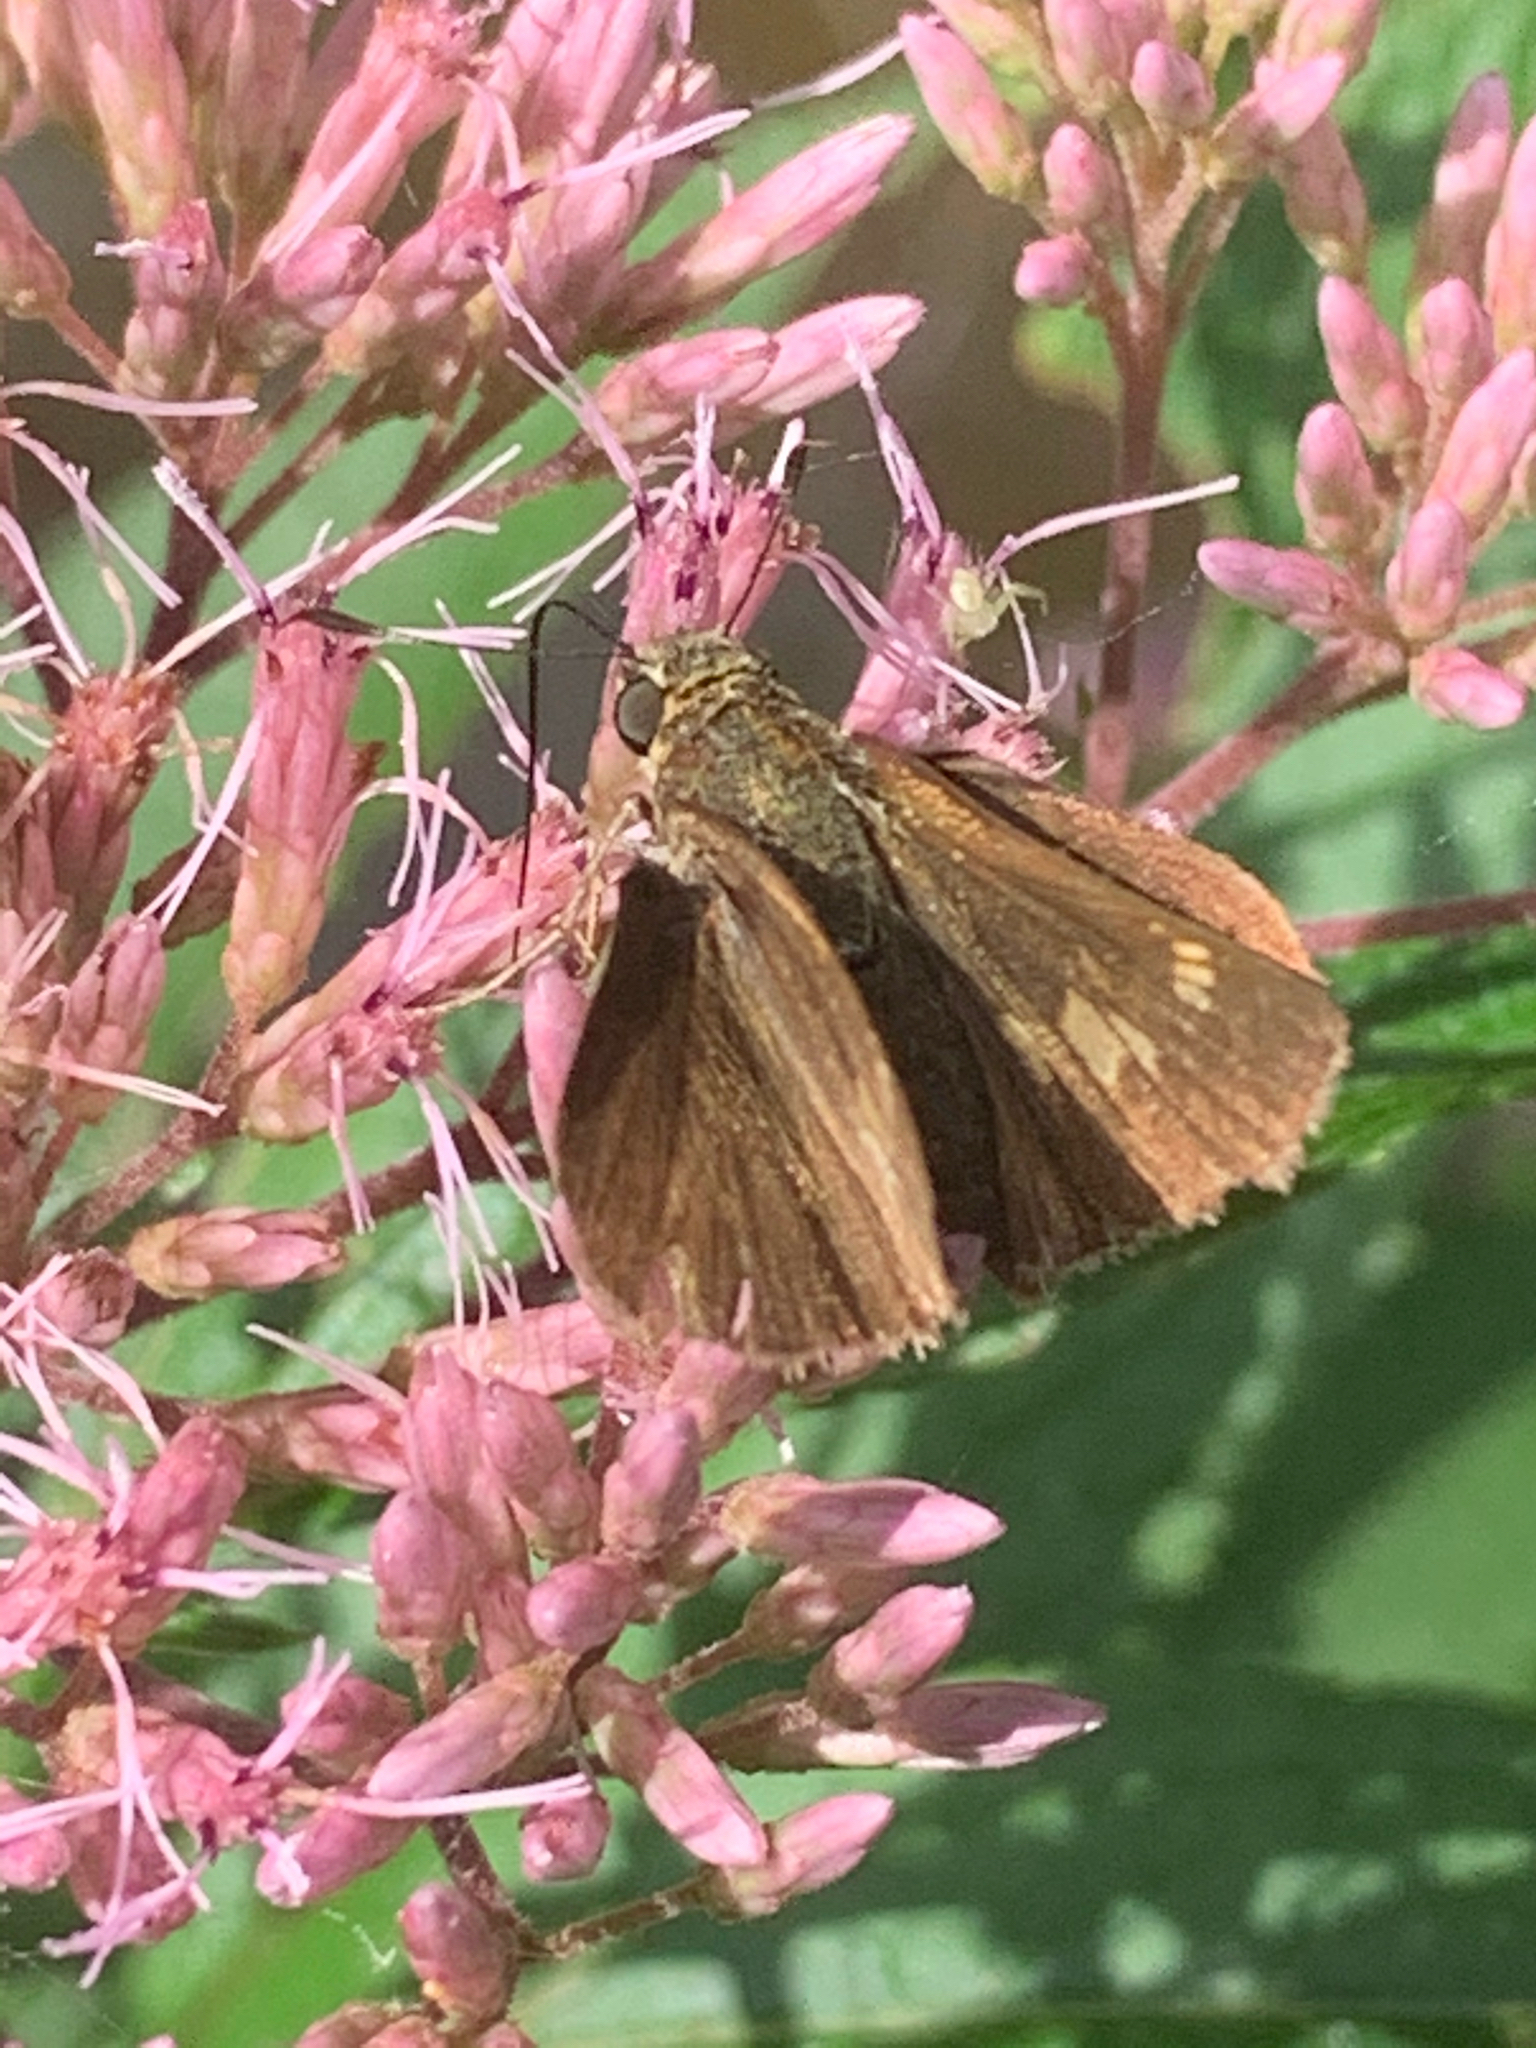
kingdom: Animalia
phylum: Arthropoda
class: Insecta
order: Lepidoptera
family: Hesperiidae
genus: Vernia
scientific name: Vernia verna
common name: Little glassywing
